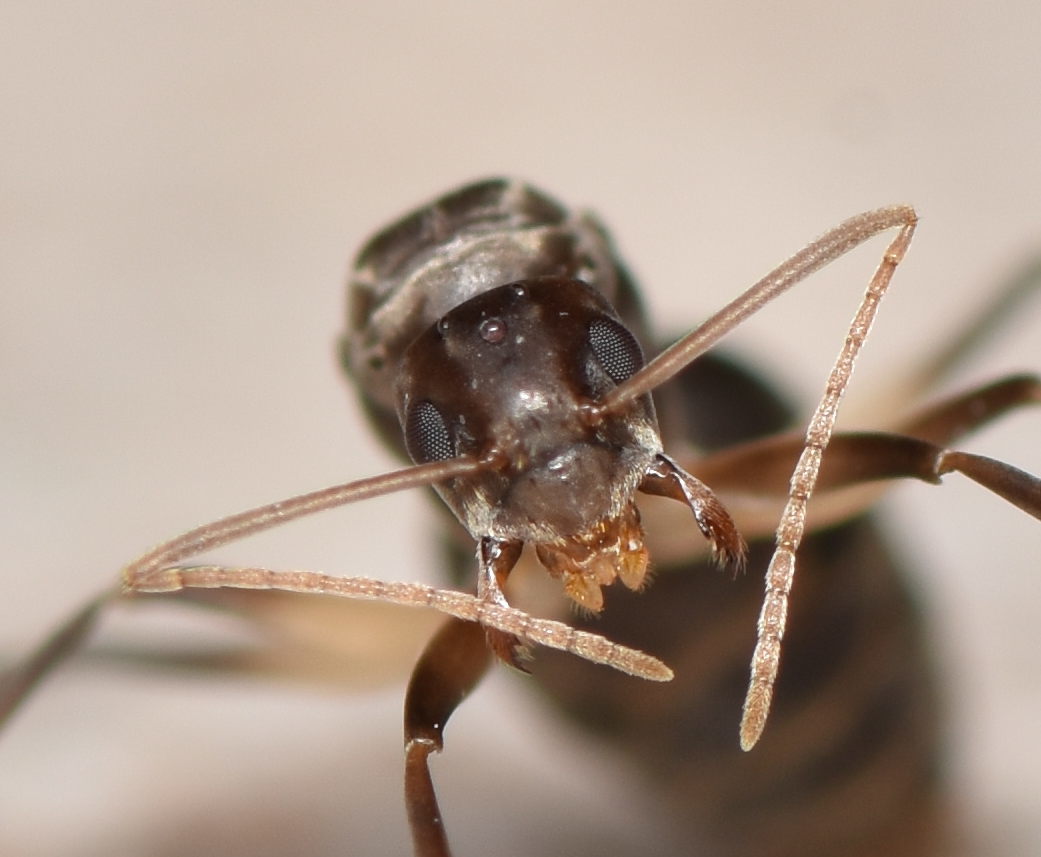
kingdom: Animalia
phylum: Arthropoda
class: Insecta
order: Hymenoptera
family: Formicidae
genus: Paratrechina
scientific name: Paratrechina longicornis
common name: Longhorned crazy ant
